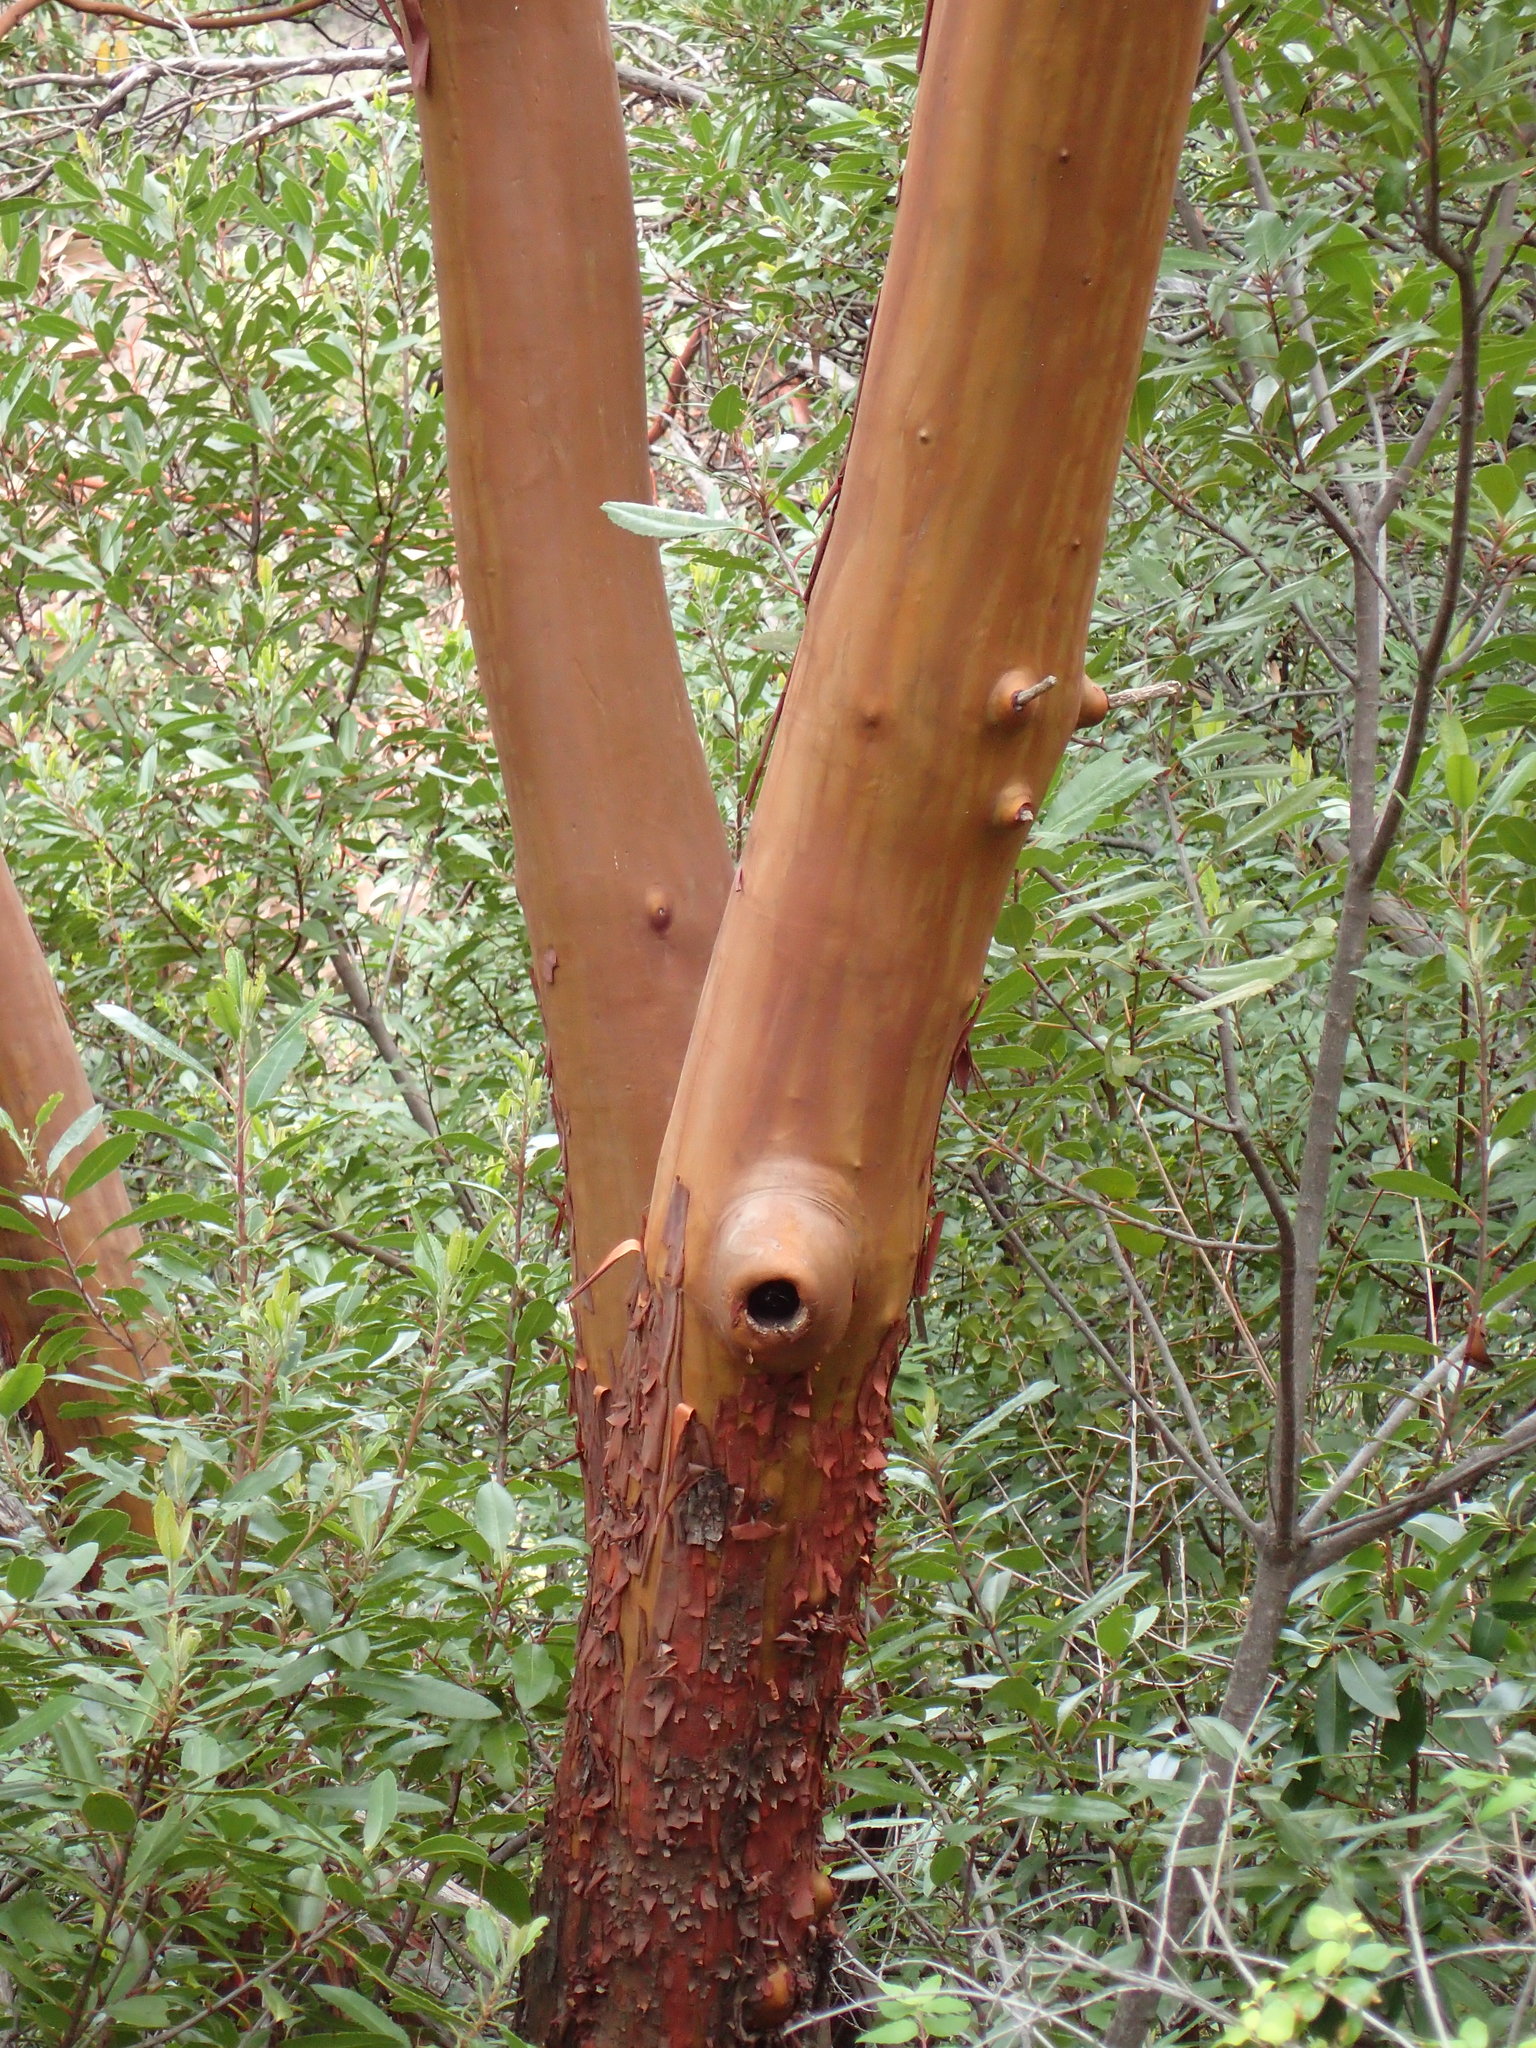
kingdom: Plantae
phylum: Tracheophyta
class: Magnoliopsida
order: Ericales
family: Ericaceae
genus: Arbutus
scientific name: Arbutus menziesii
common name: Pacific madrone
